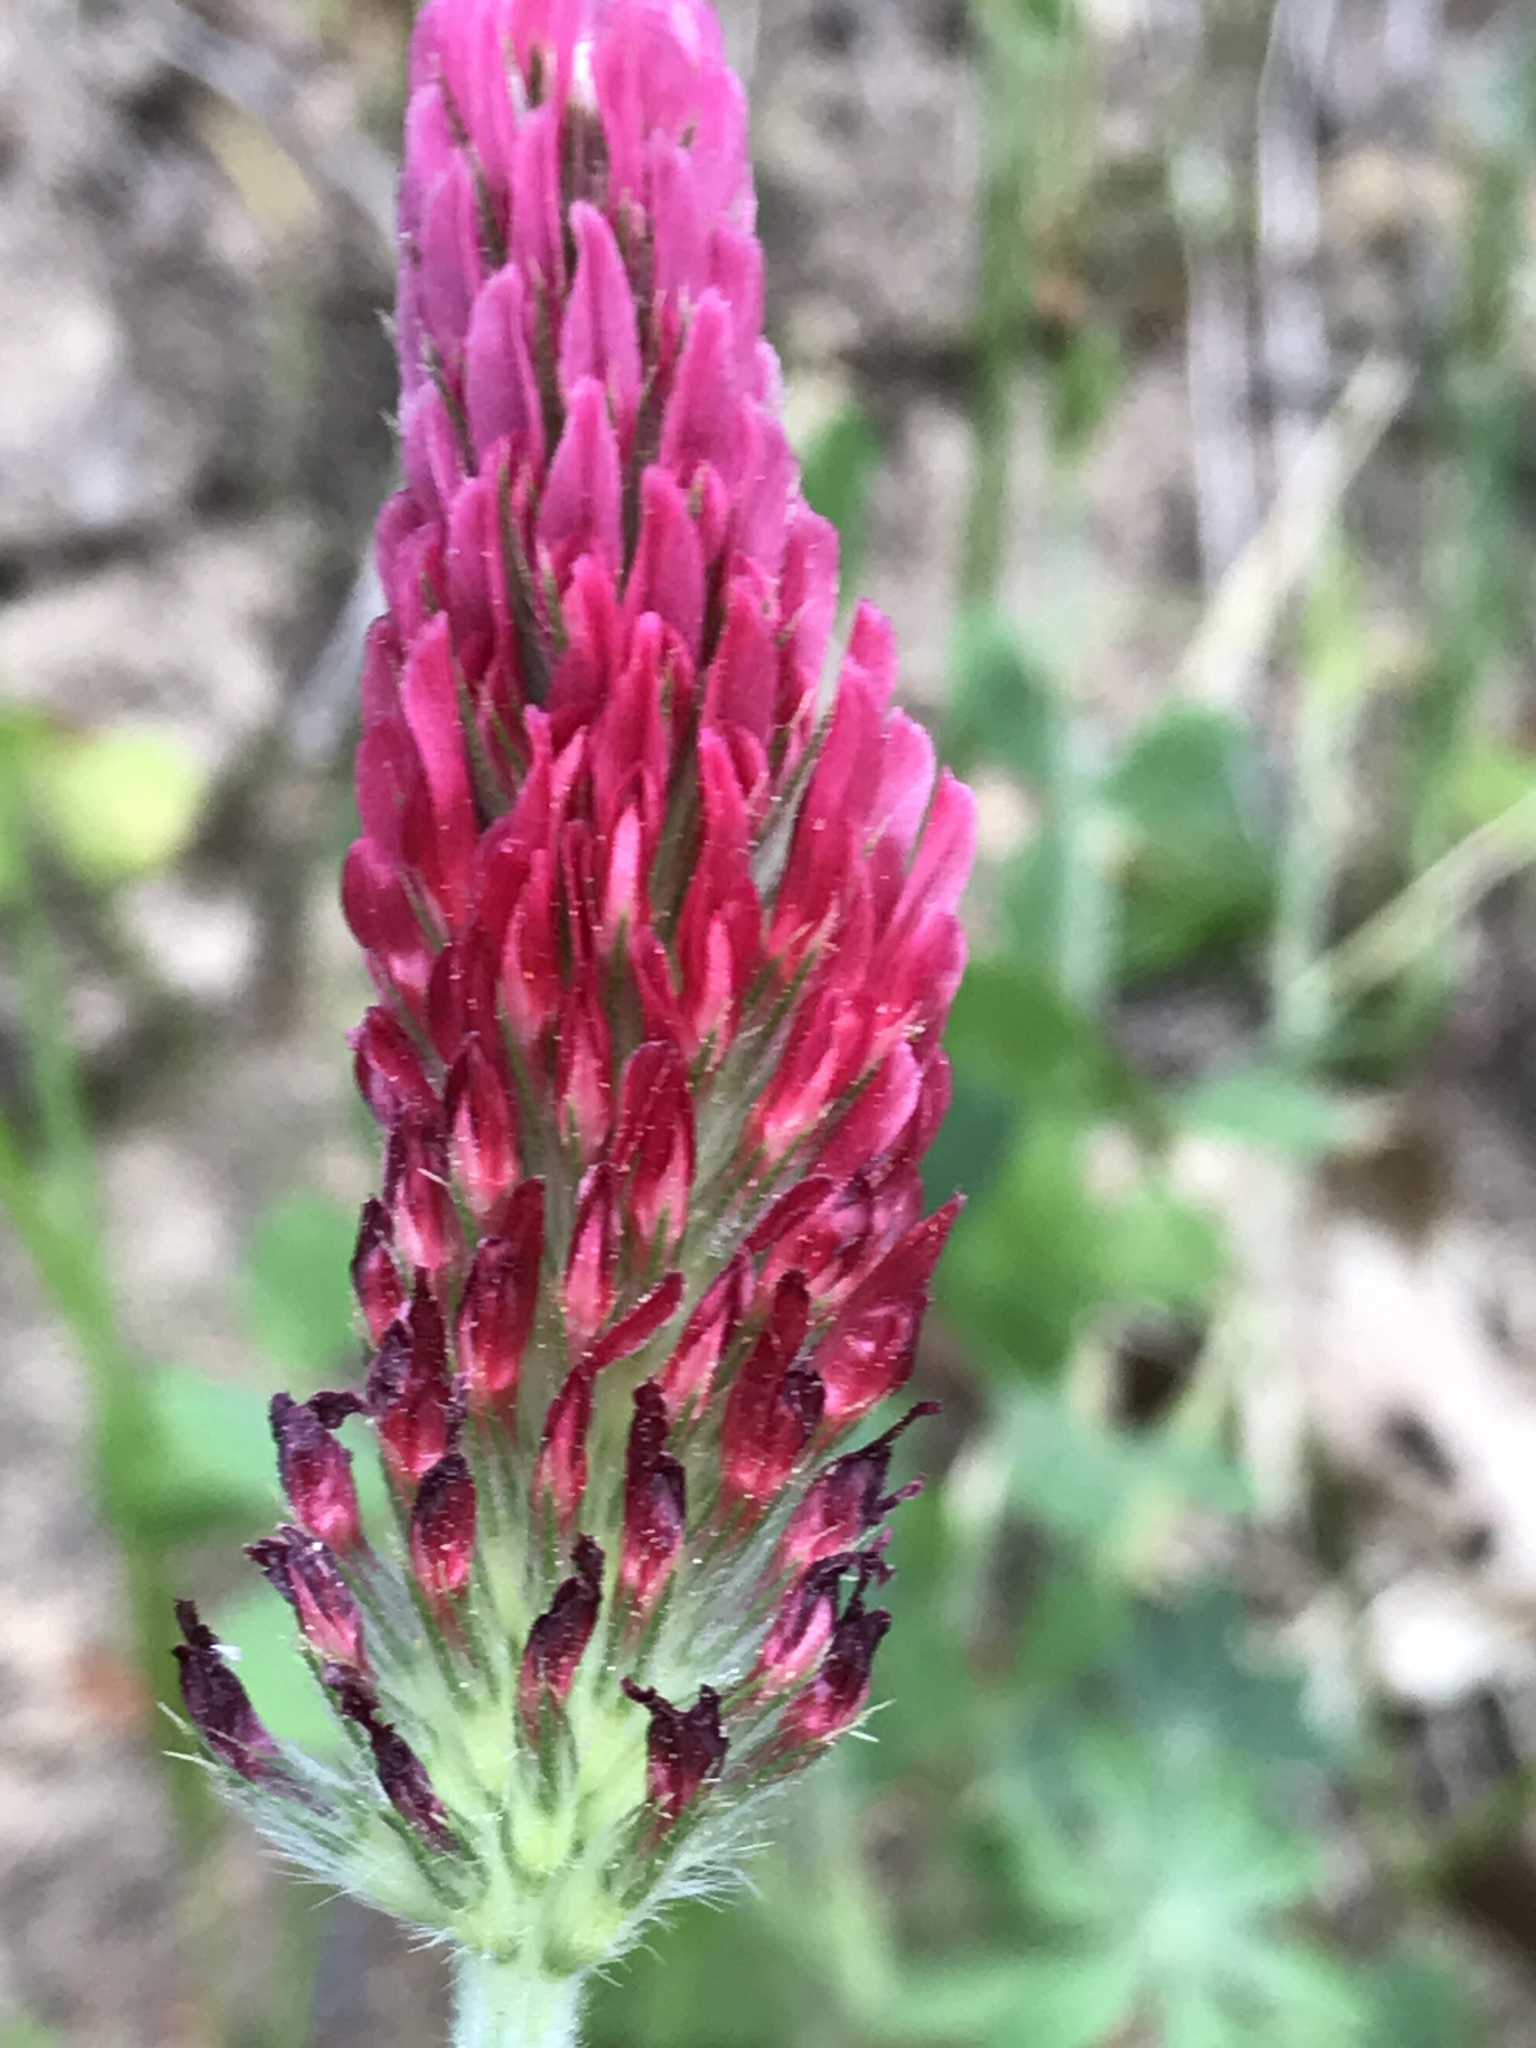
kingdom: Plantae
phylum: Tracheophyta
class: Magnoliopsida
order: Fabales
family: Fabaceae
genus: Trifolium
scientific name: Trifolium incarnatum
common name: Crimson clover
